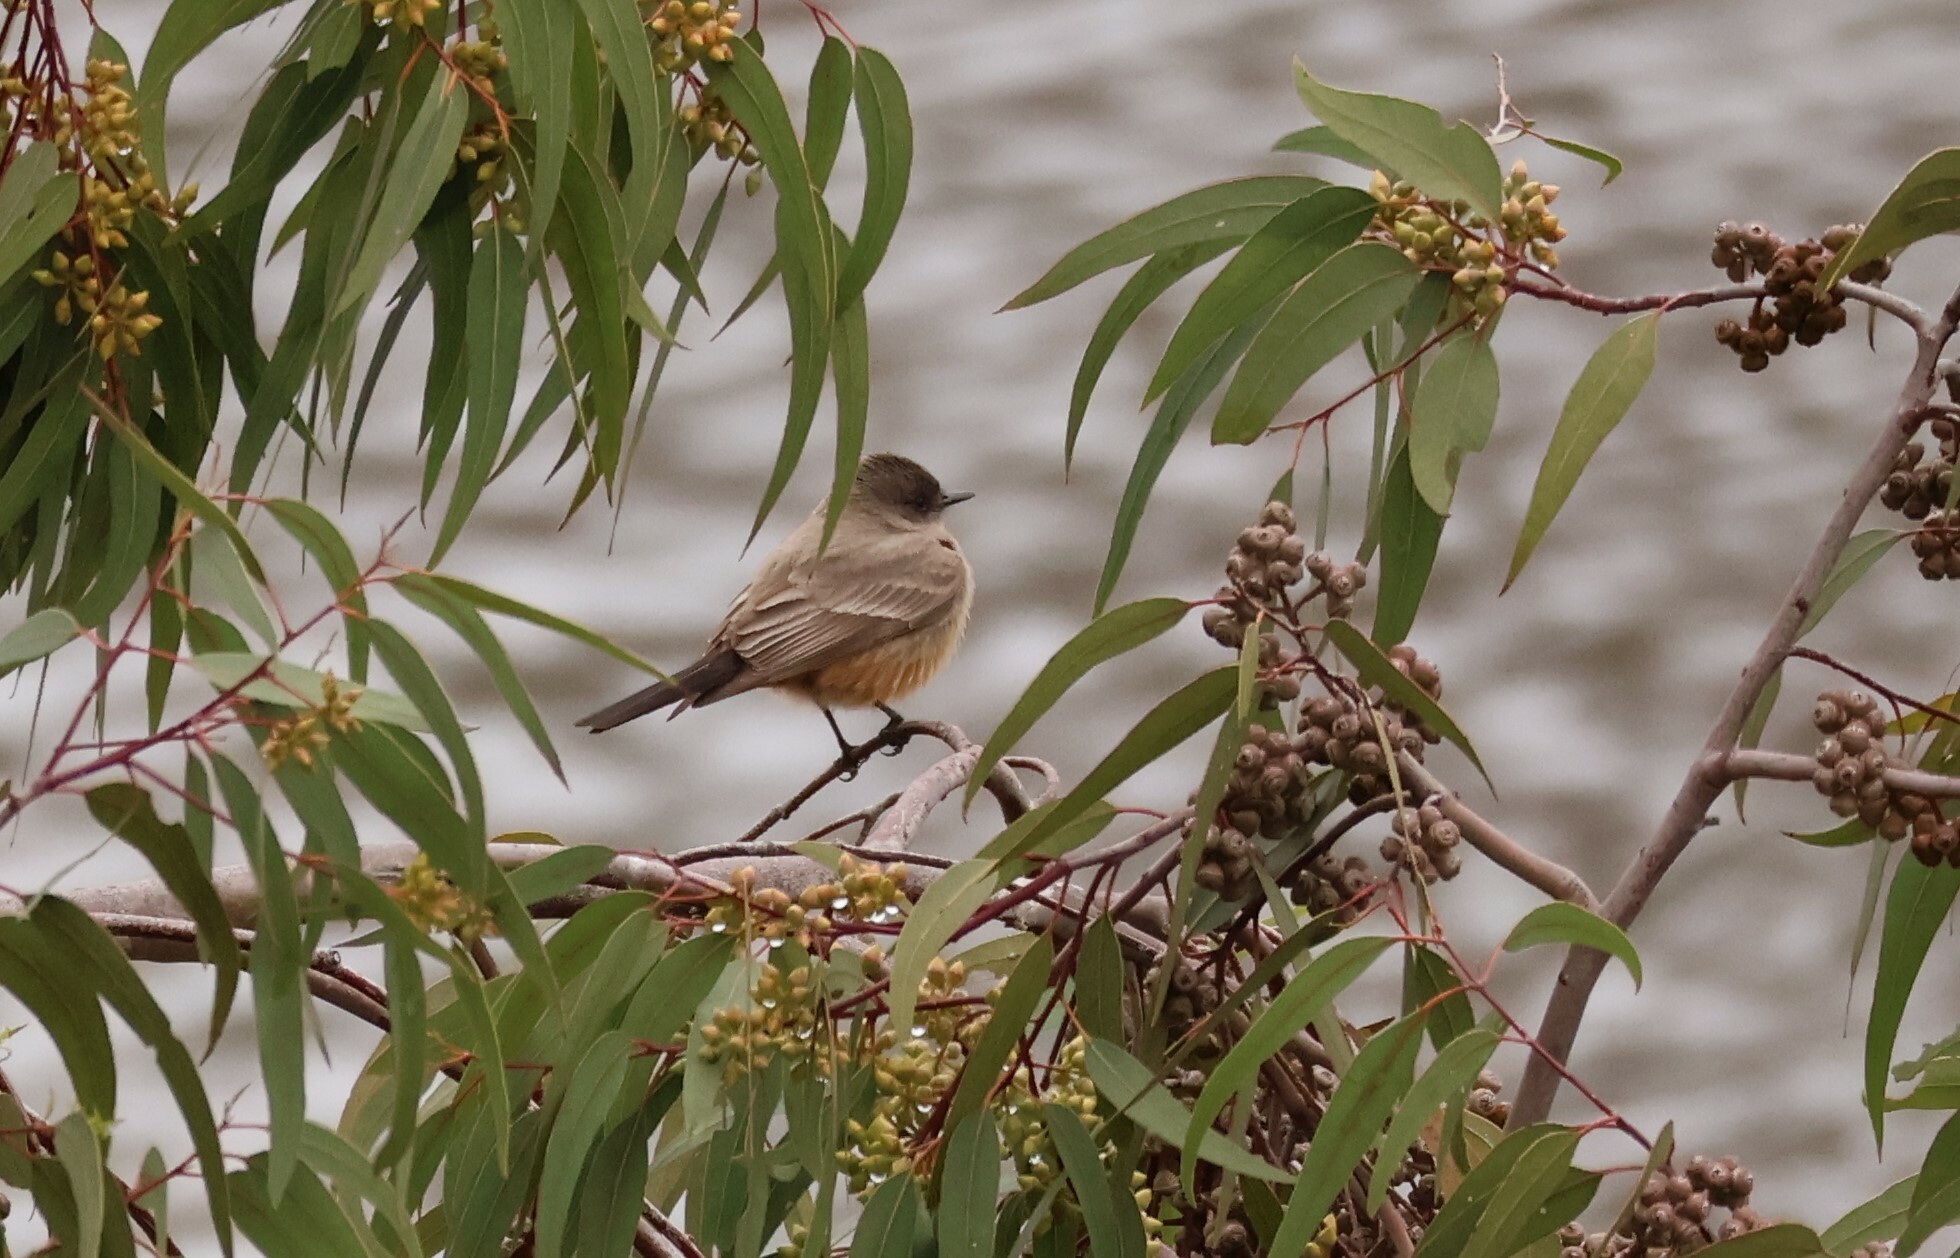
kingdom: Animalia
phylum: Chordata
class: Aves
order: Passeriformes
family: Tyrannidae
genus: Sayornis
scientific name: Sayornis saya
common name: Say's phoebe
